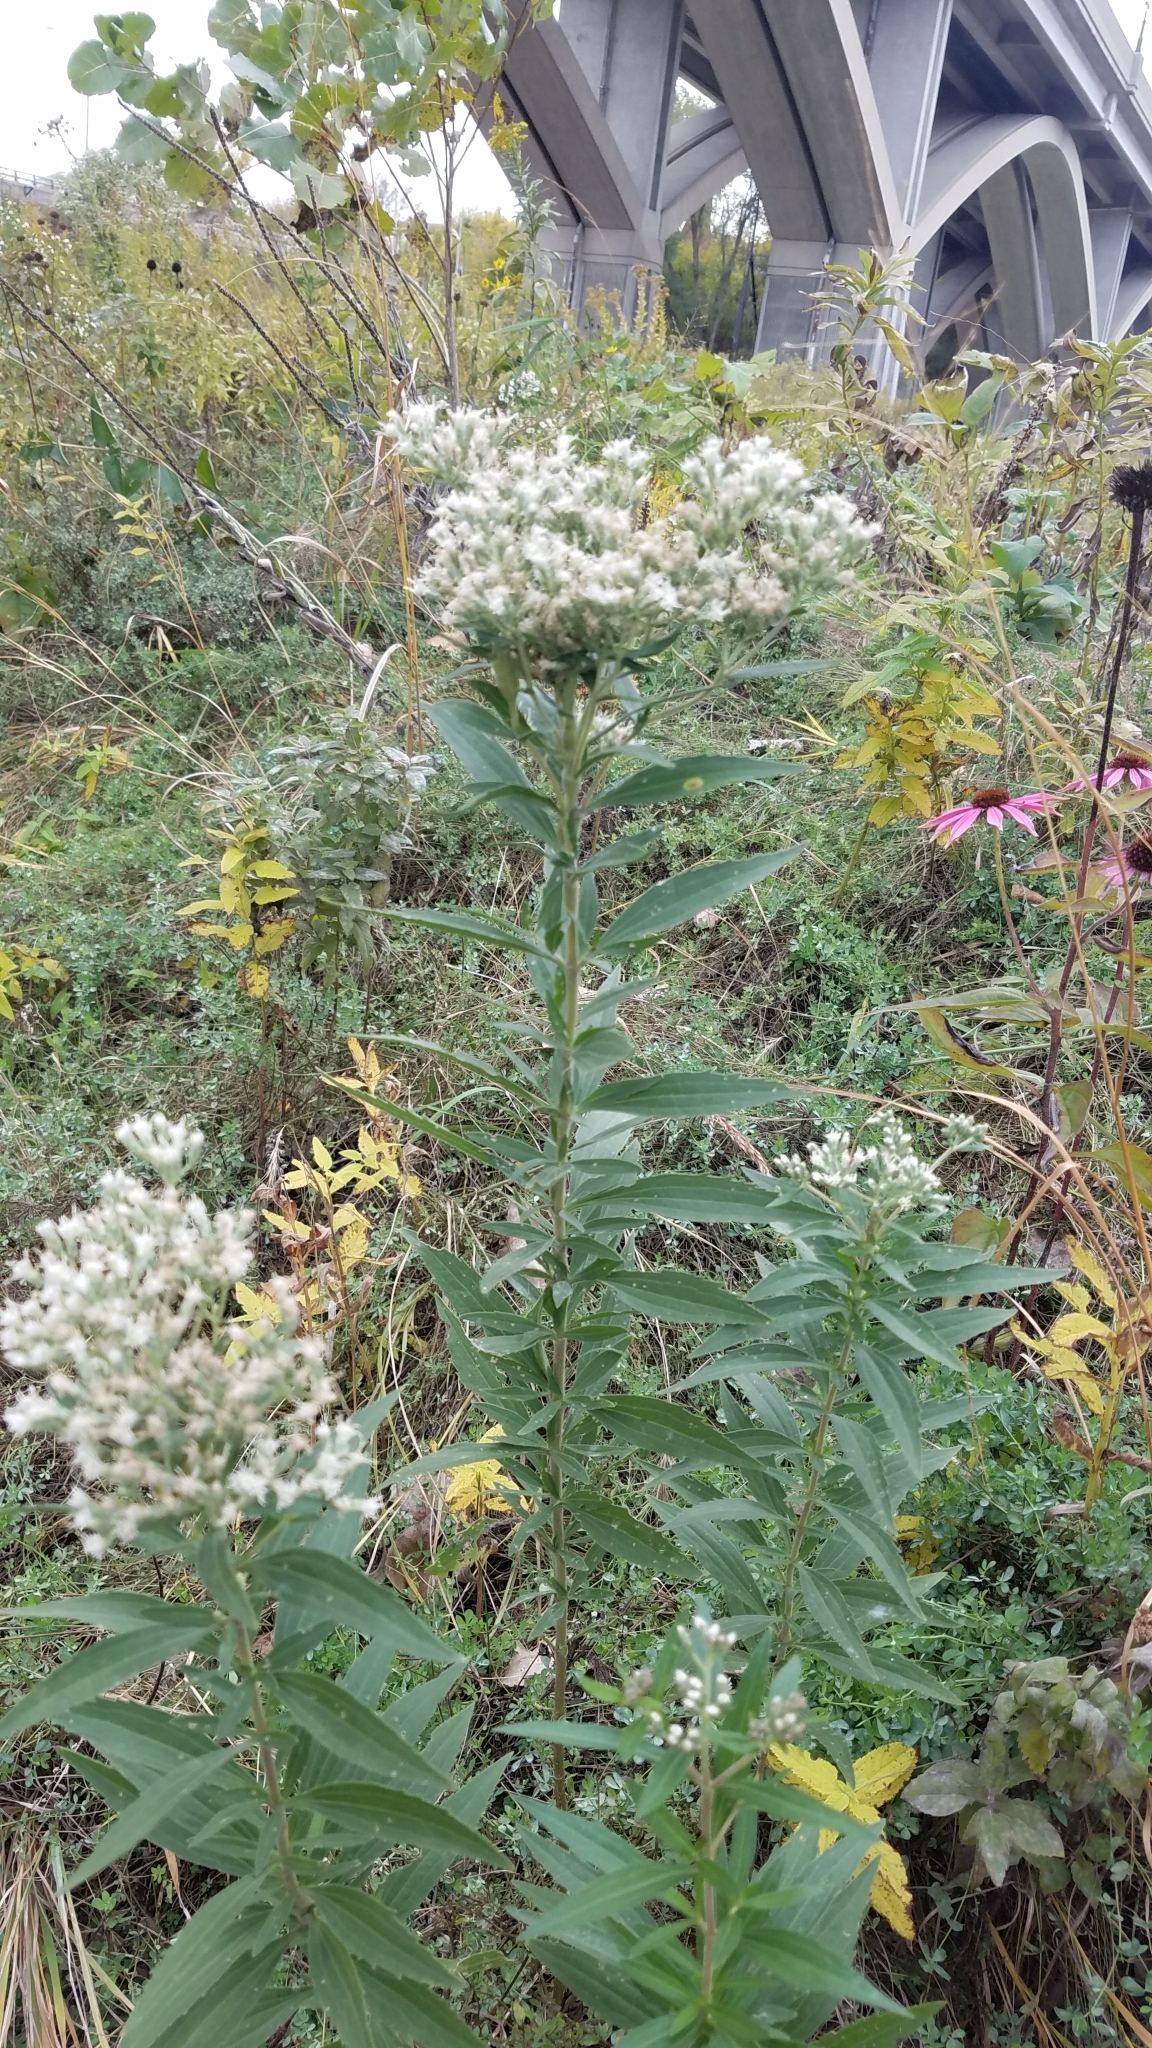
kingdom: Plantae
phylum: Tracheophyta
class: Magnoliopsida
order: Asterales
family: Asteraceae
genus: Eupatorium
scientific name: Eupatorium altissimum
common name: Tall thoroughwort
